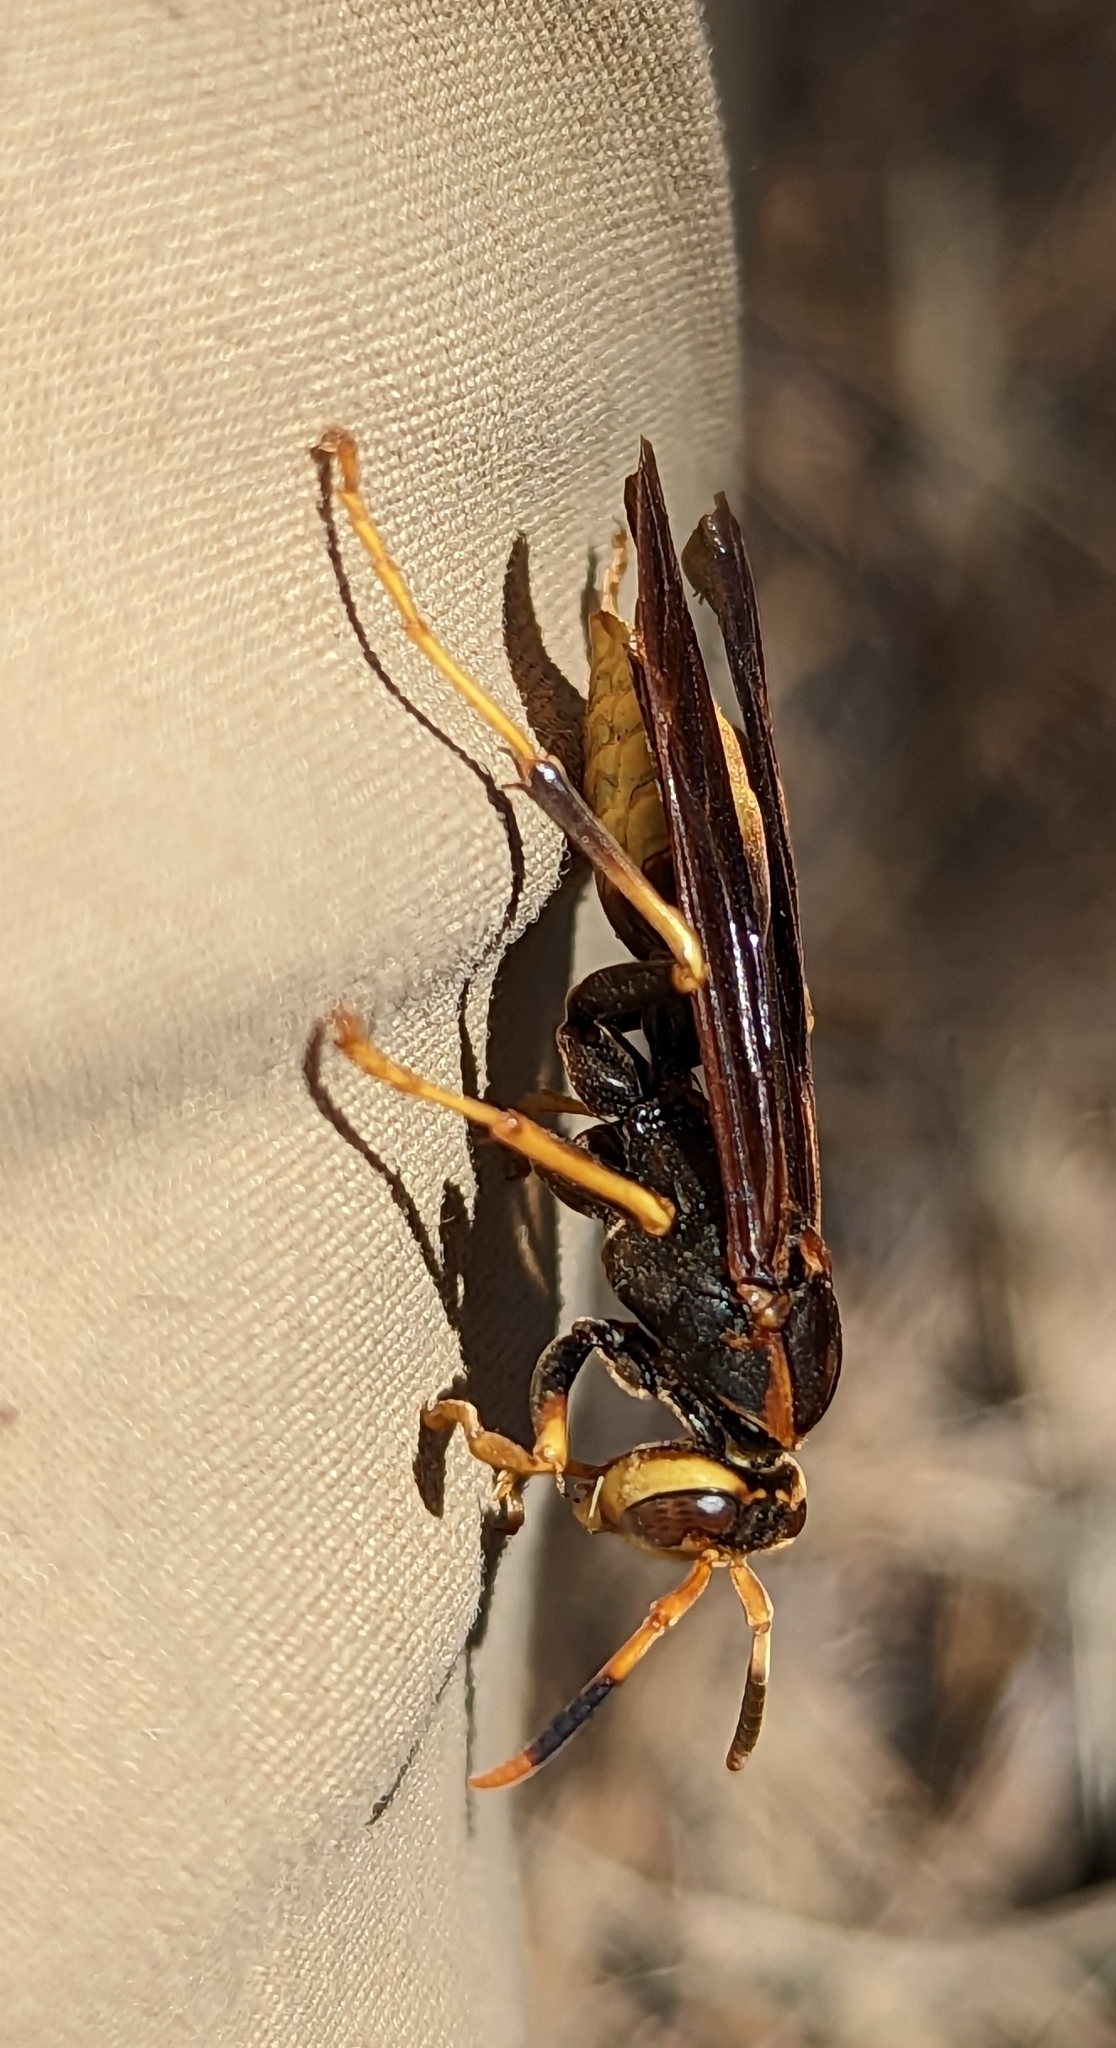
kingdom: Animalia
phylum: Arthropoda
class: Insecta
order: Hymenoptera
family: Eumenidae
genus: Polistes
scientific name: Polistes comanchus
